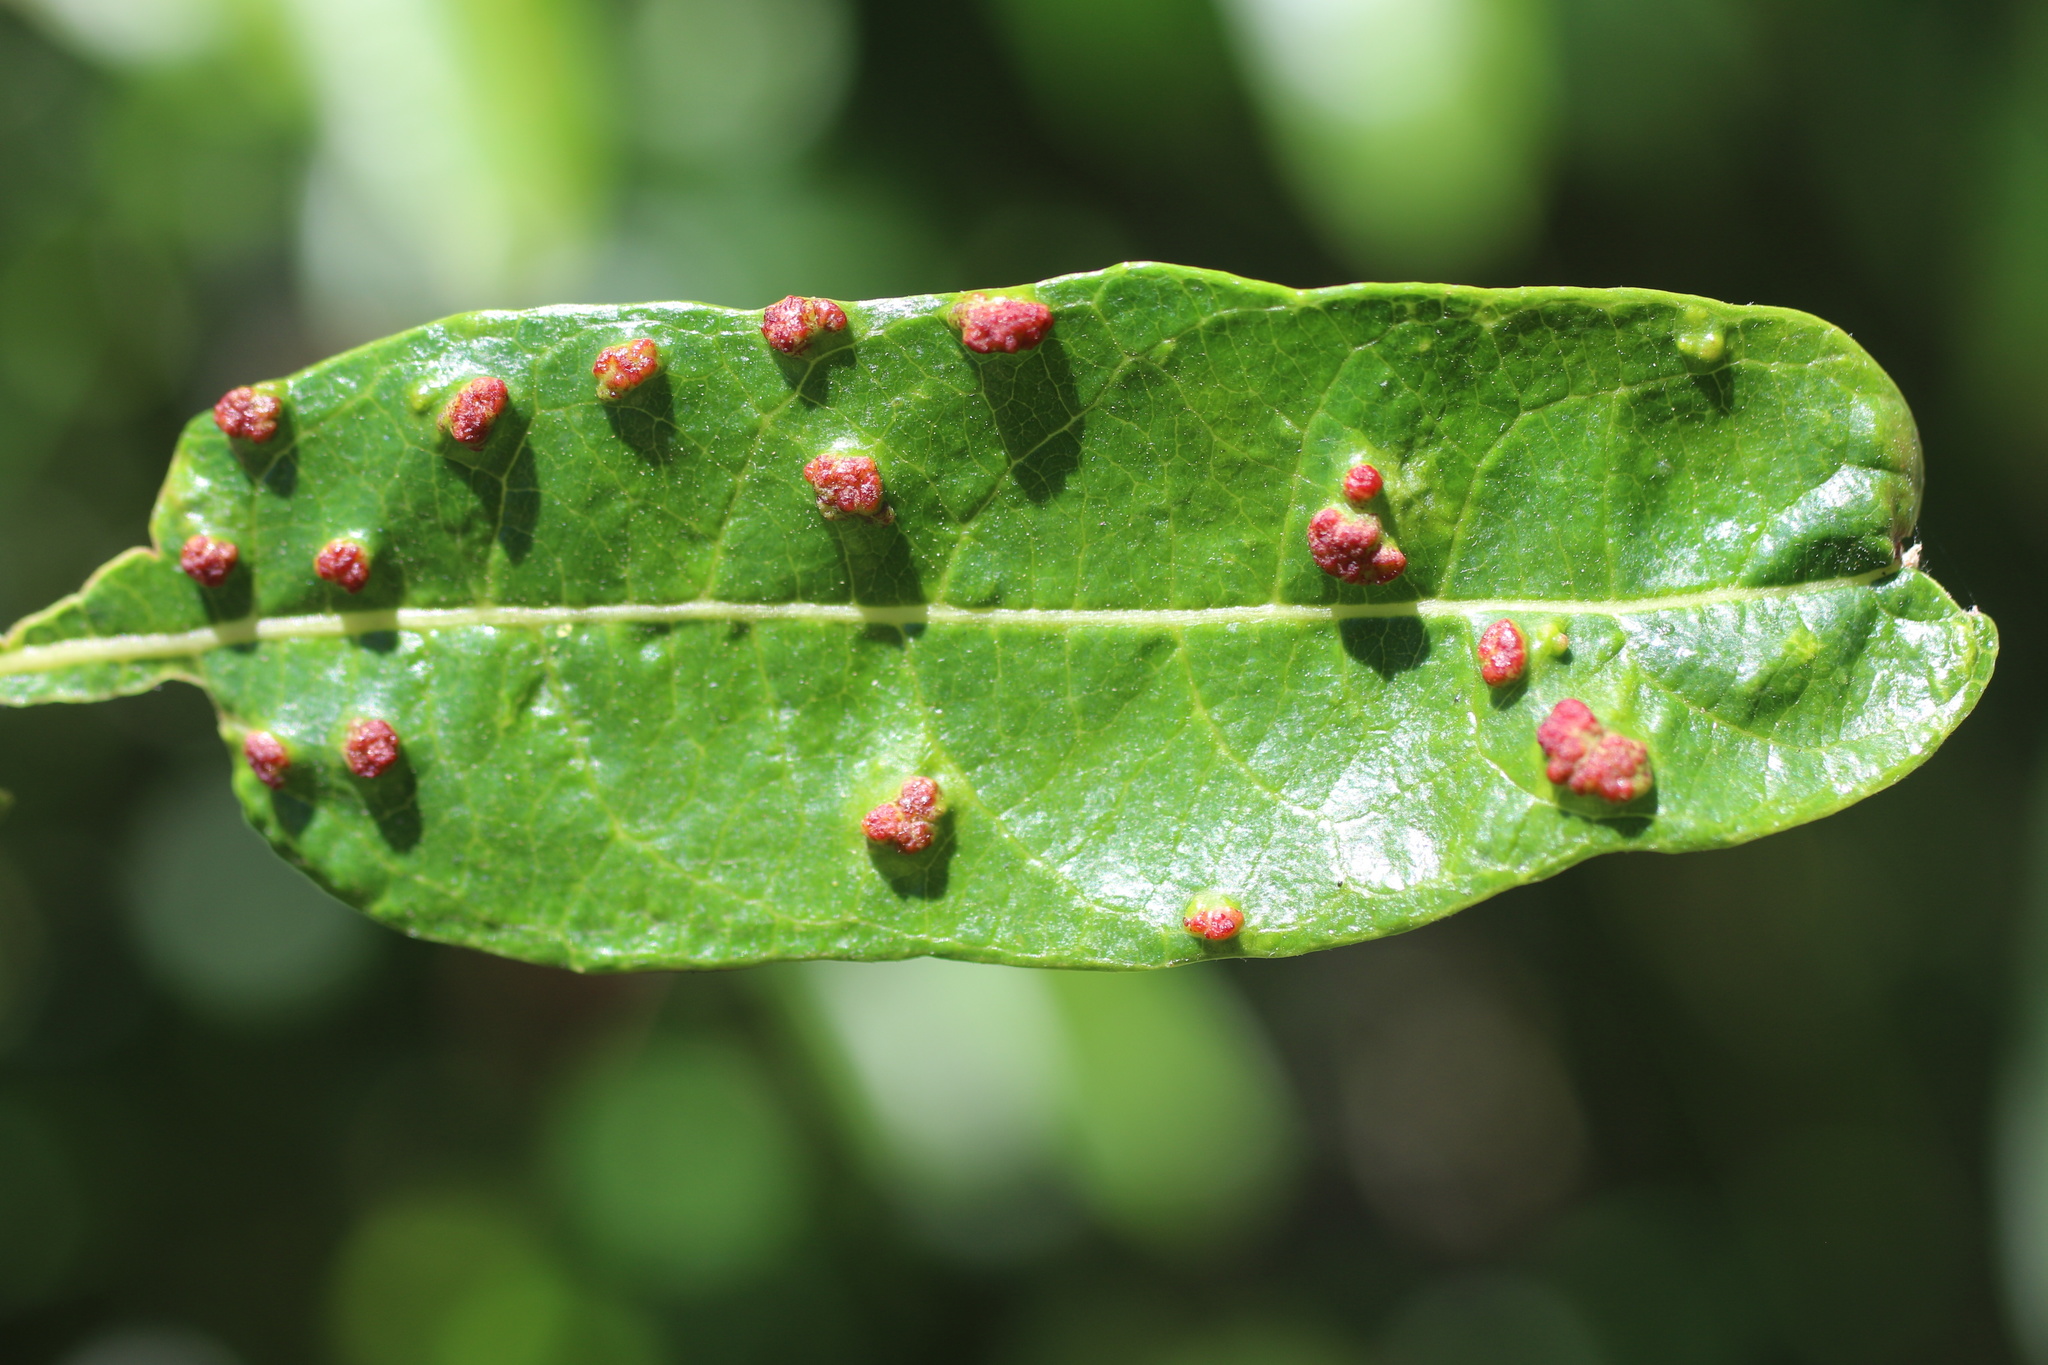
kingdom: Animalia
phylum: Arthropoda
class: Arachnida
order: Trombidiformes
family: Eriophyidae
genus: Aculus
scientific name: Aculus tetanothrix
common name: Willow bead gall mite
